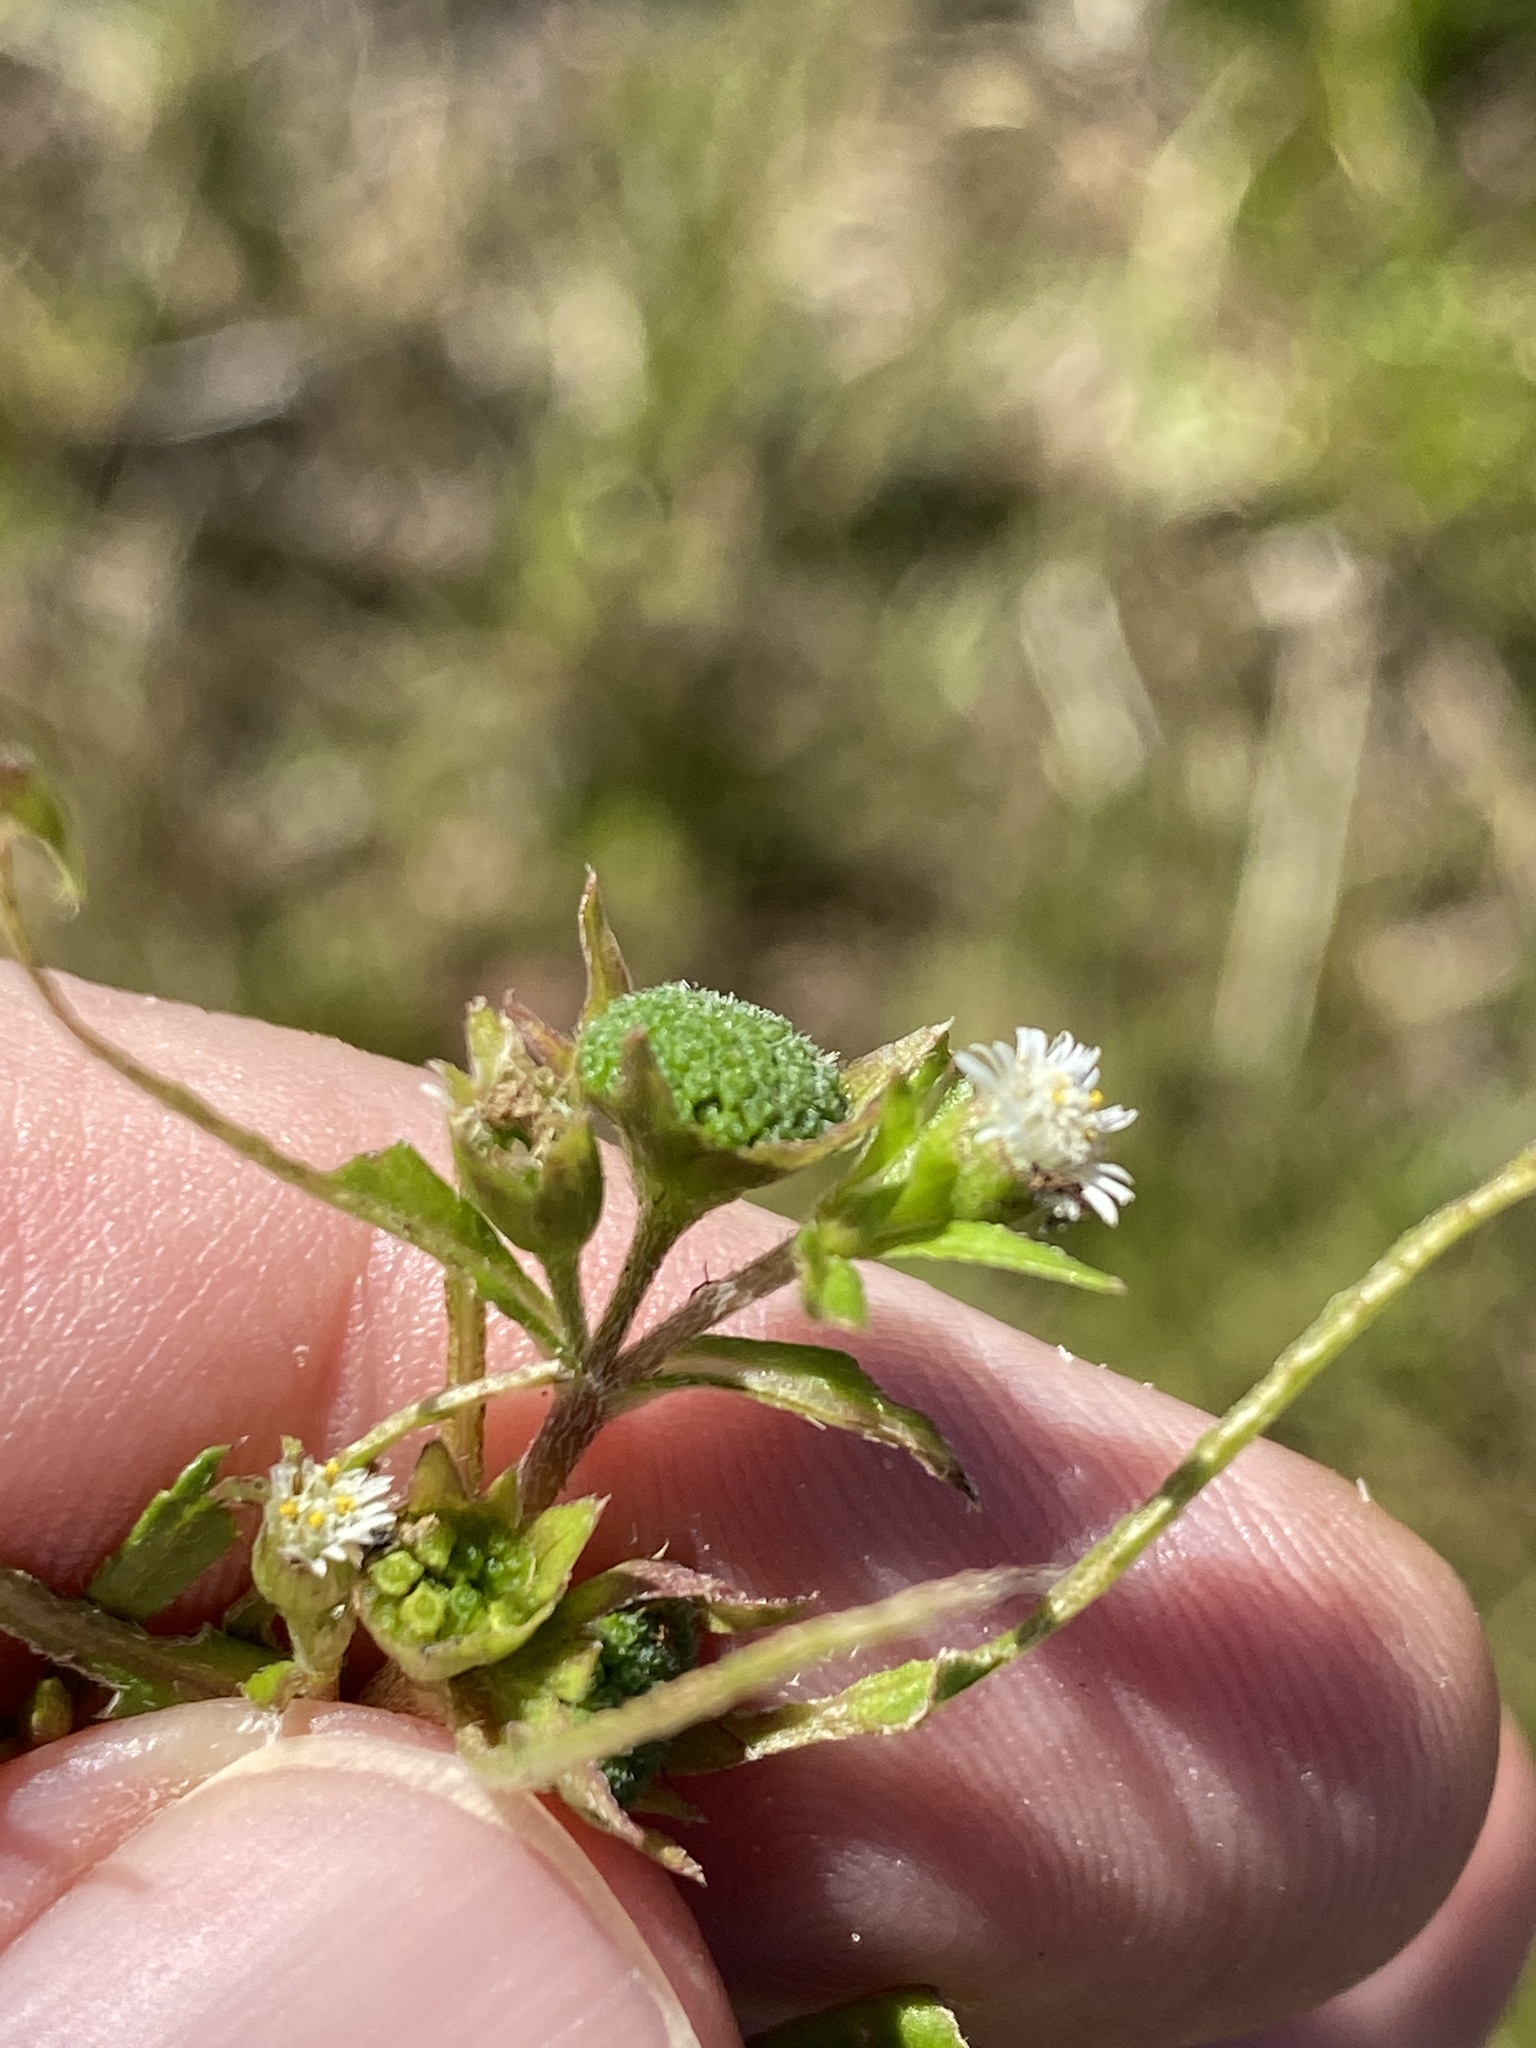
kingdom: Plantae
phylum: Tracheophyta
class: Magnoliopsida
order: Asterales
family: Asteraceae
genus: Eclipta
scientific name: Eclipta prostrata
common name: False daisy
